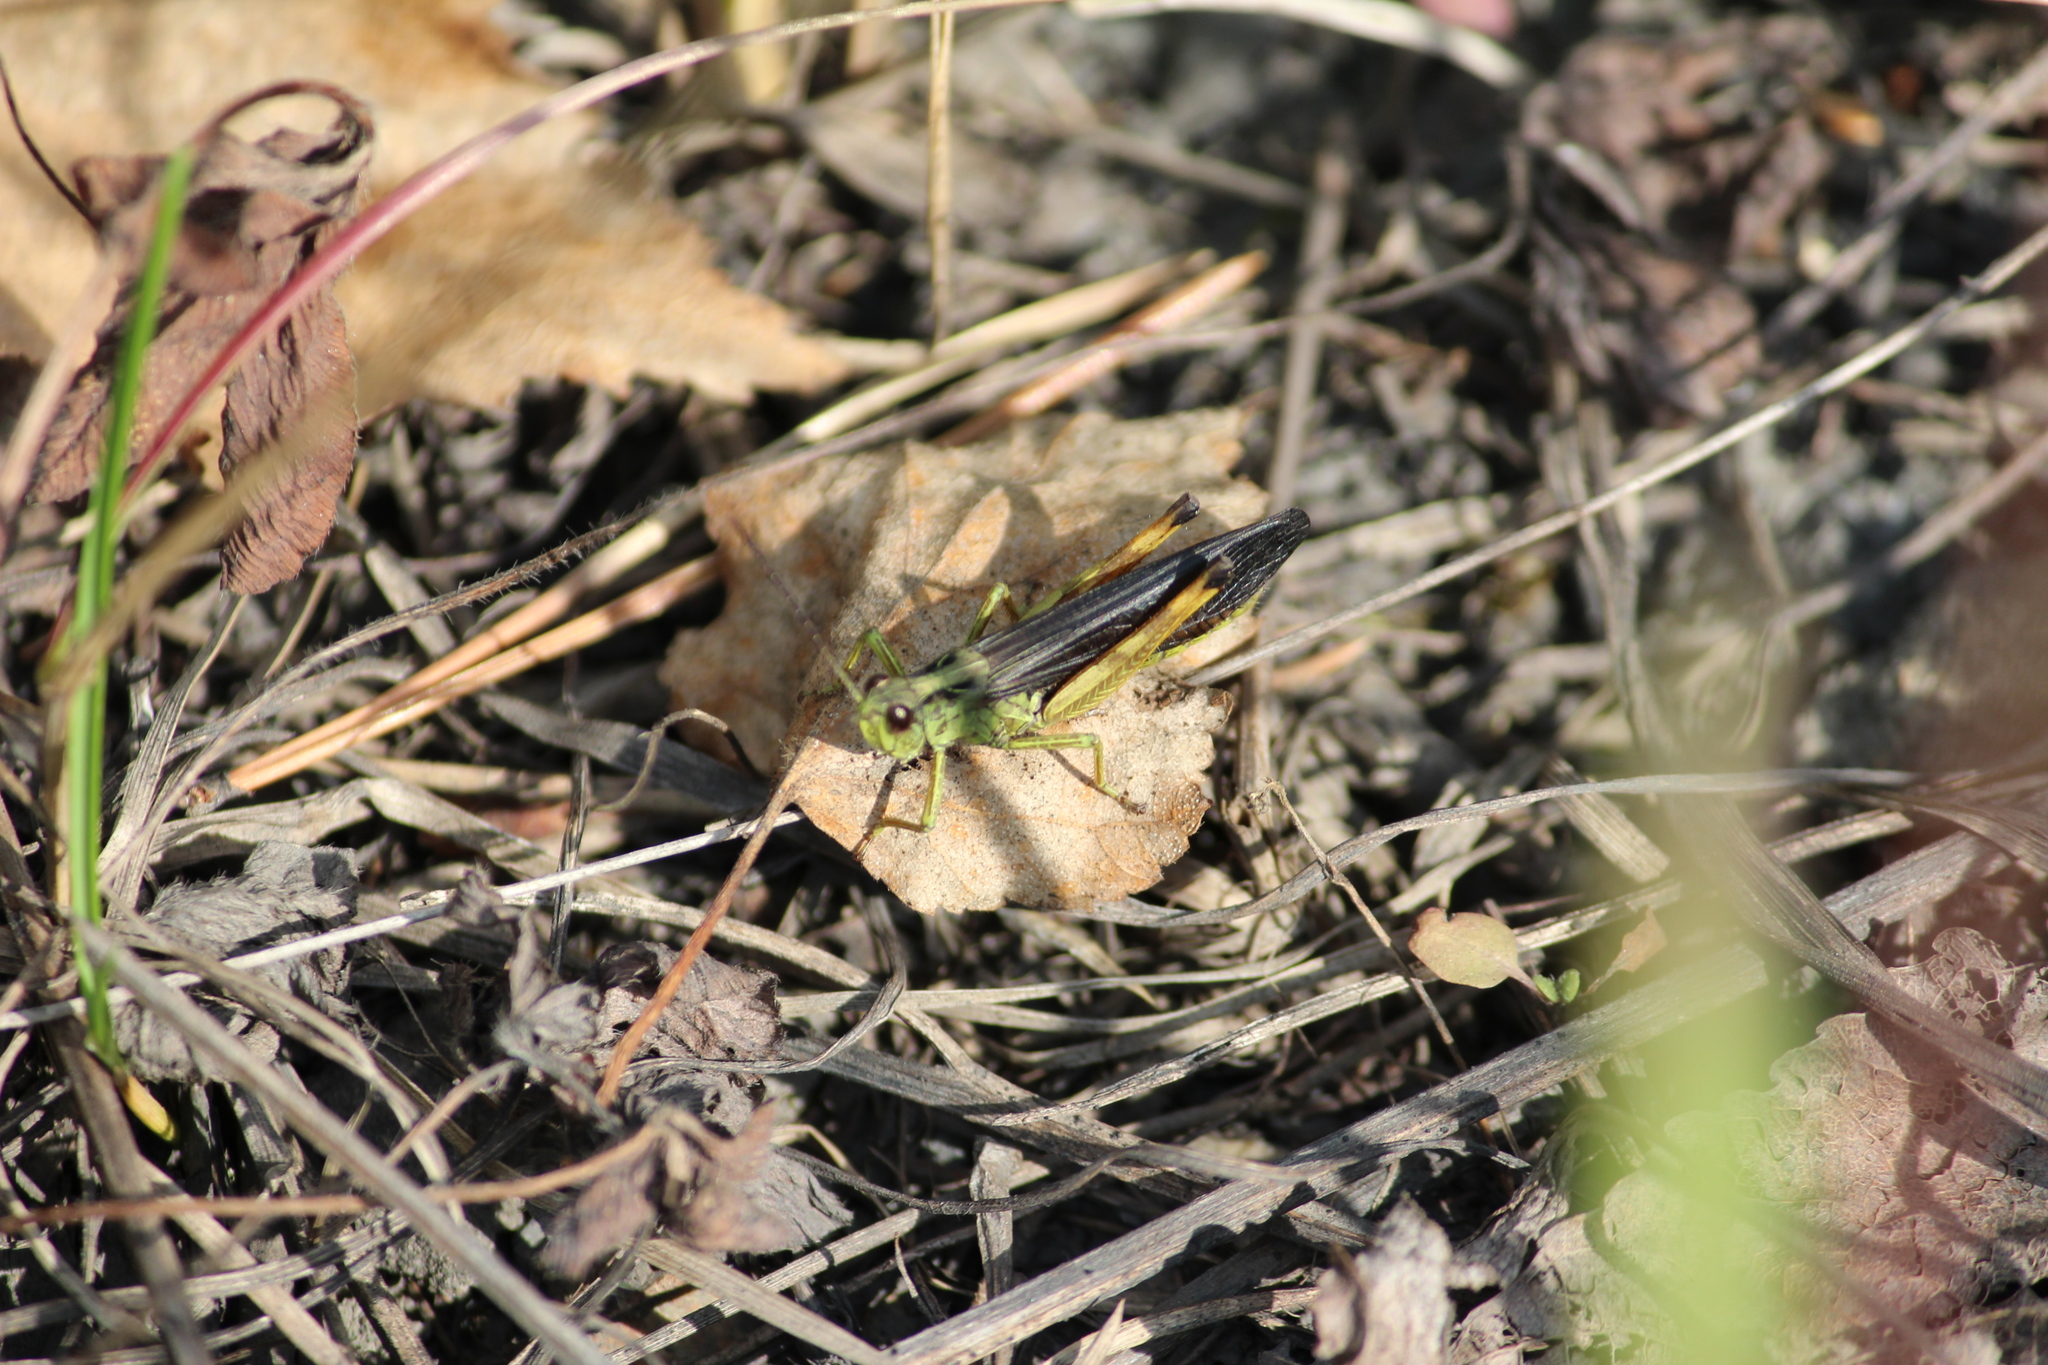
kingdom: Animalia
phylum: Arthropoda
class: Insecta
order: Orthoptera
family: Acrididae
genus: Megaulacobothrus
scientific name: Megaulacobothrus aethalinus
